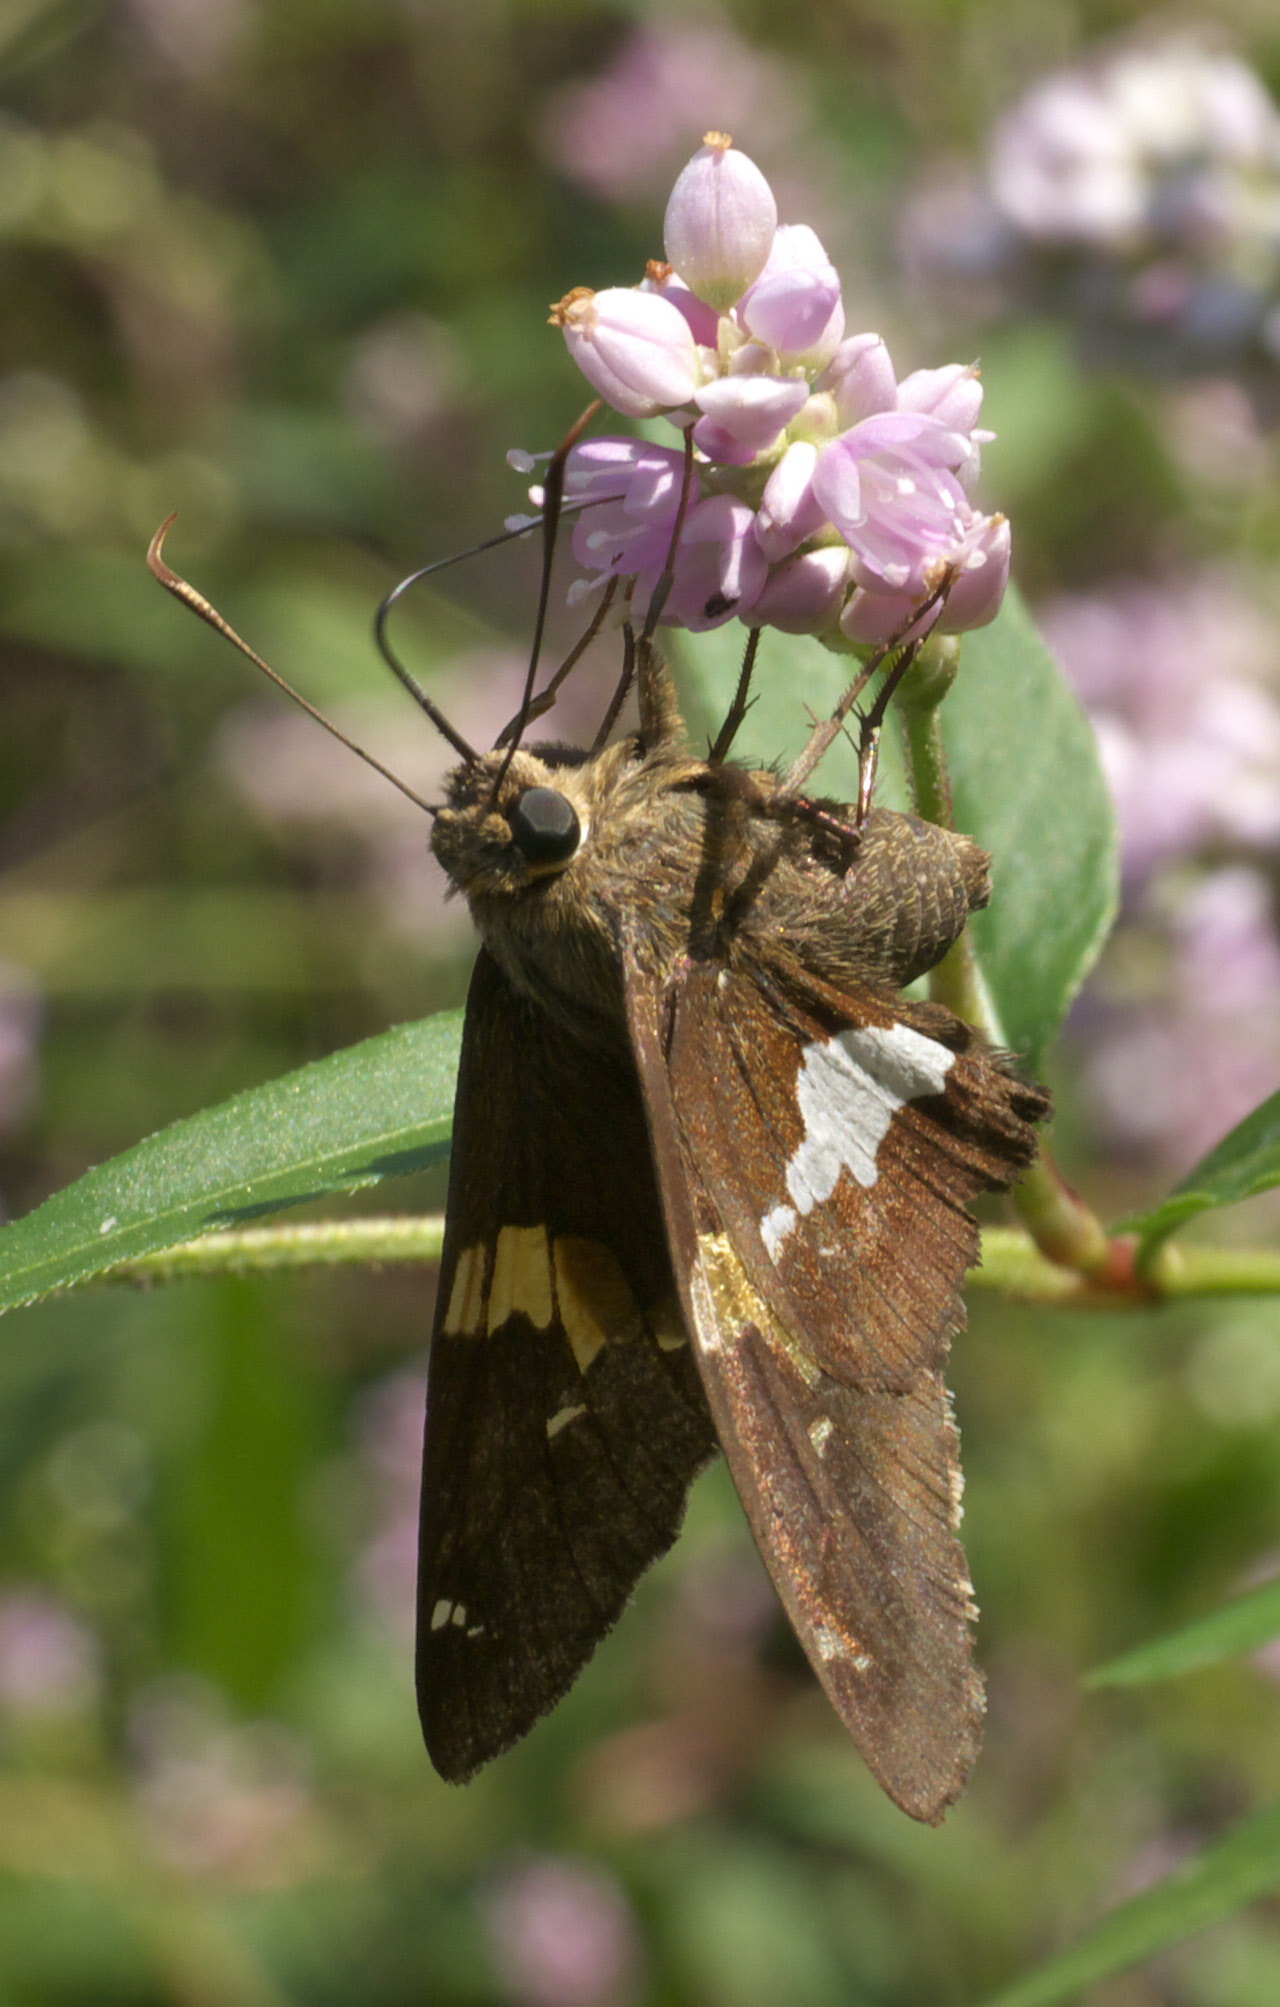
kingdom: Animalia
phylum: Arthropoda
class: Insecta
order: Lepidoptera
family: Hesperiidae
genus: Epargyreus
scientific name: Epargyreus clarus
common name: Silver-spotted skipper
